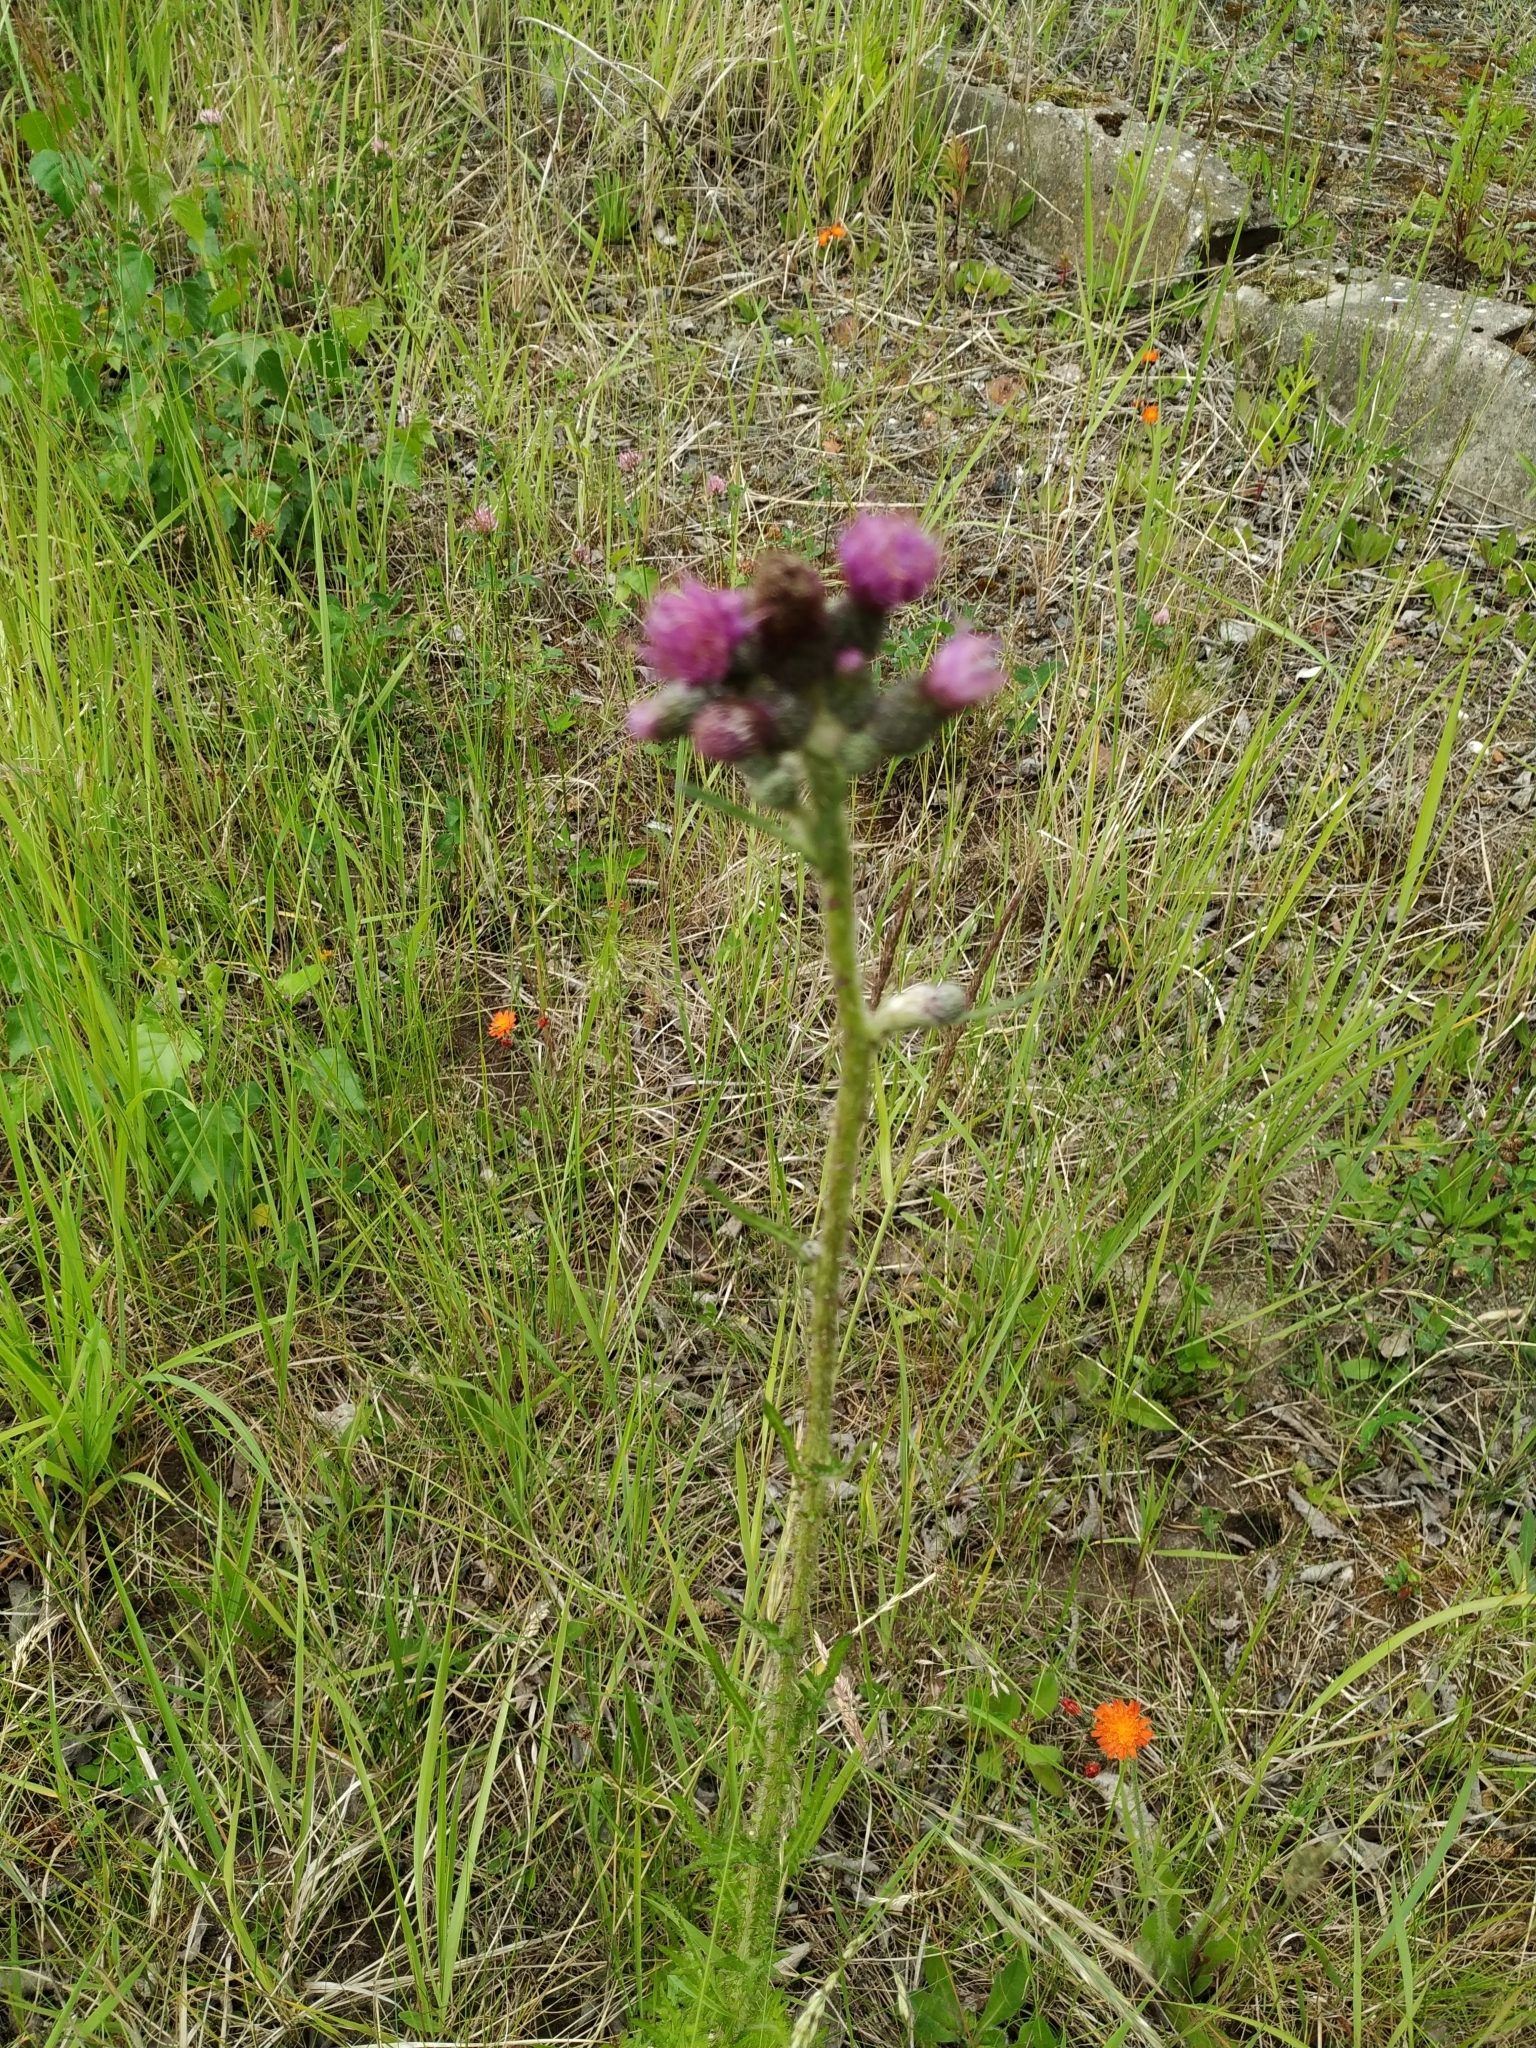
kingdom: Plantae
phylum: Tracheophyta
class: Magnoliopsida
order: Asterales
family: Asteraceae
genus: Cirsium
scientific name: Cirsium palustre
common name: Marsh thistle
